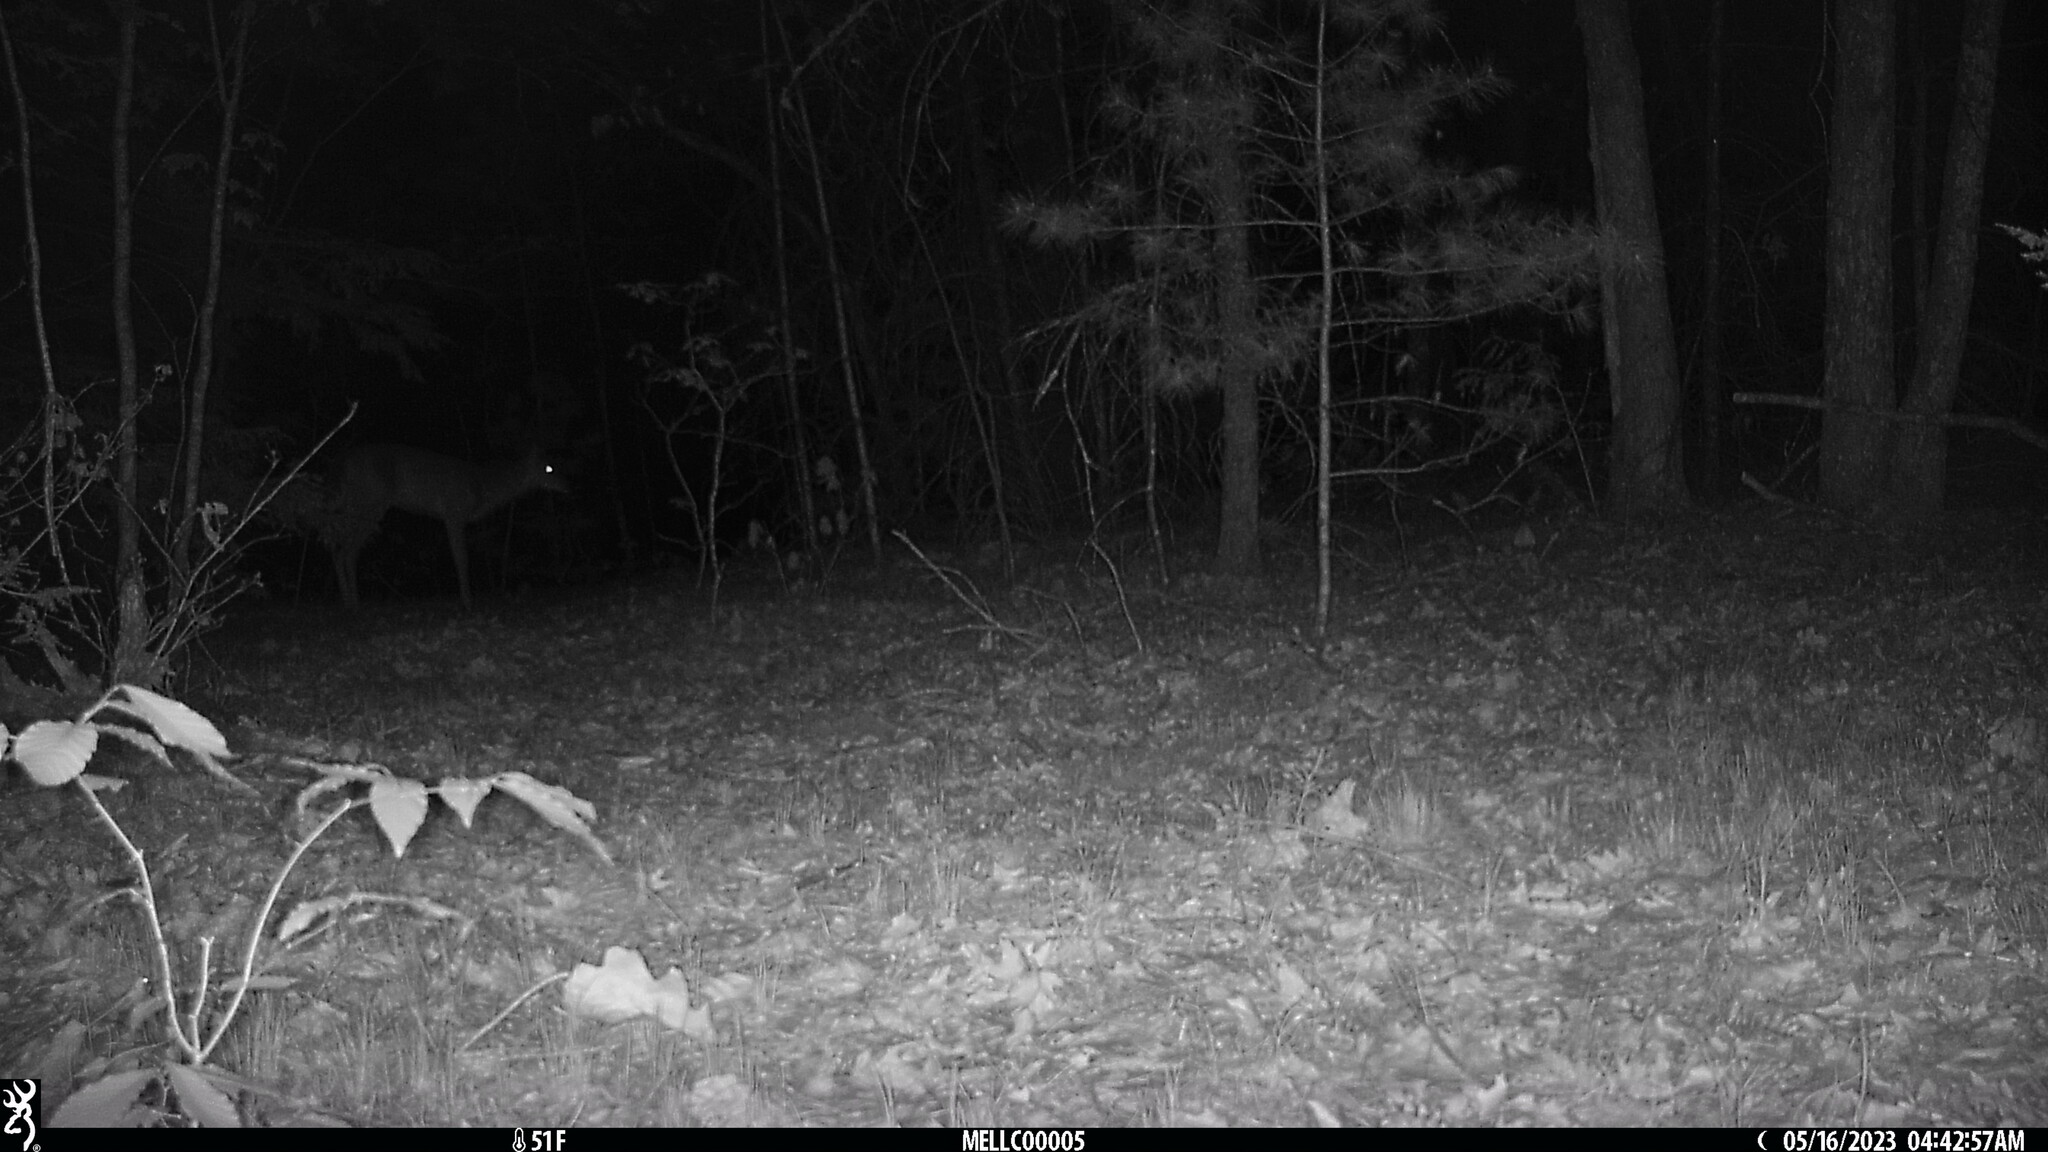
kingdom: Animalia
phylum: Chordata
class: Mammalia
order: Artiodactyla
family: Cervidae
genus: Odocoileus
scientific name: Odocoileus virginianus
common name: White-tailed deer
